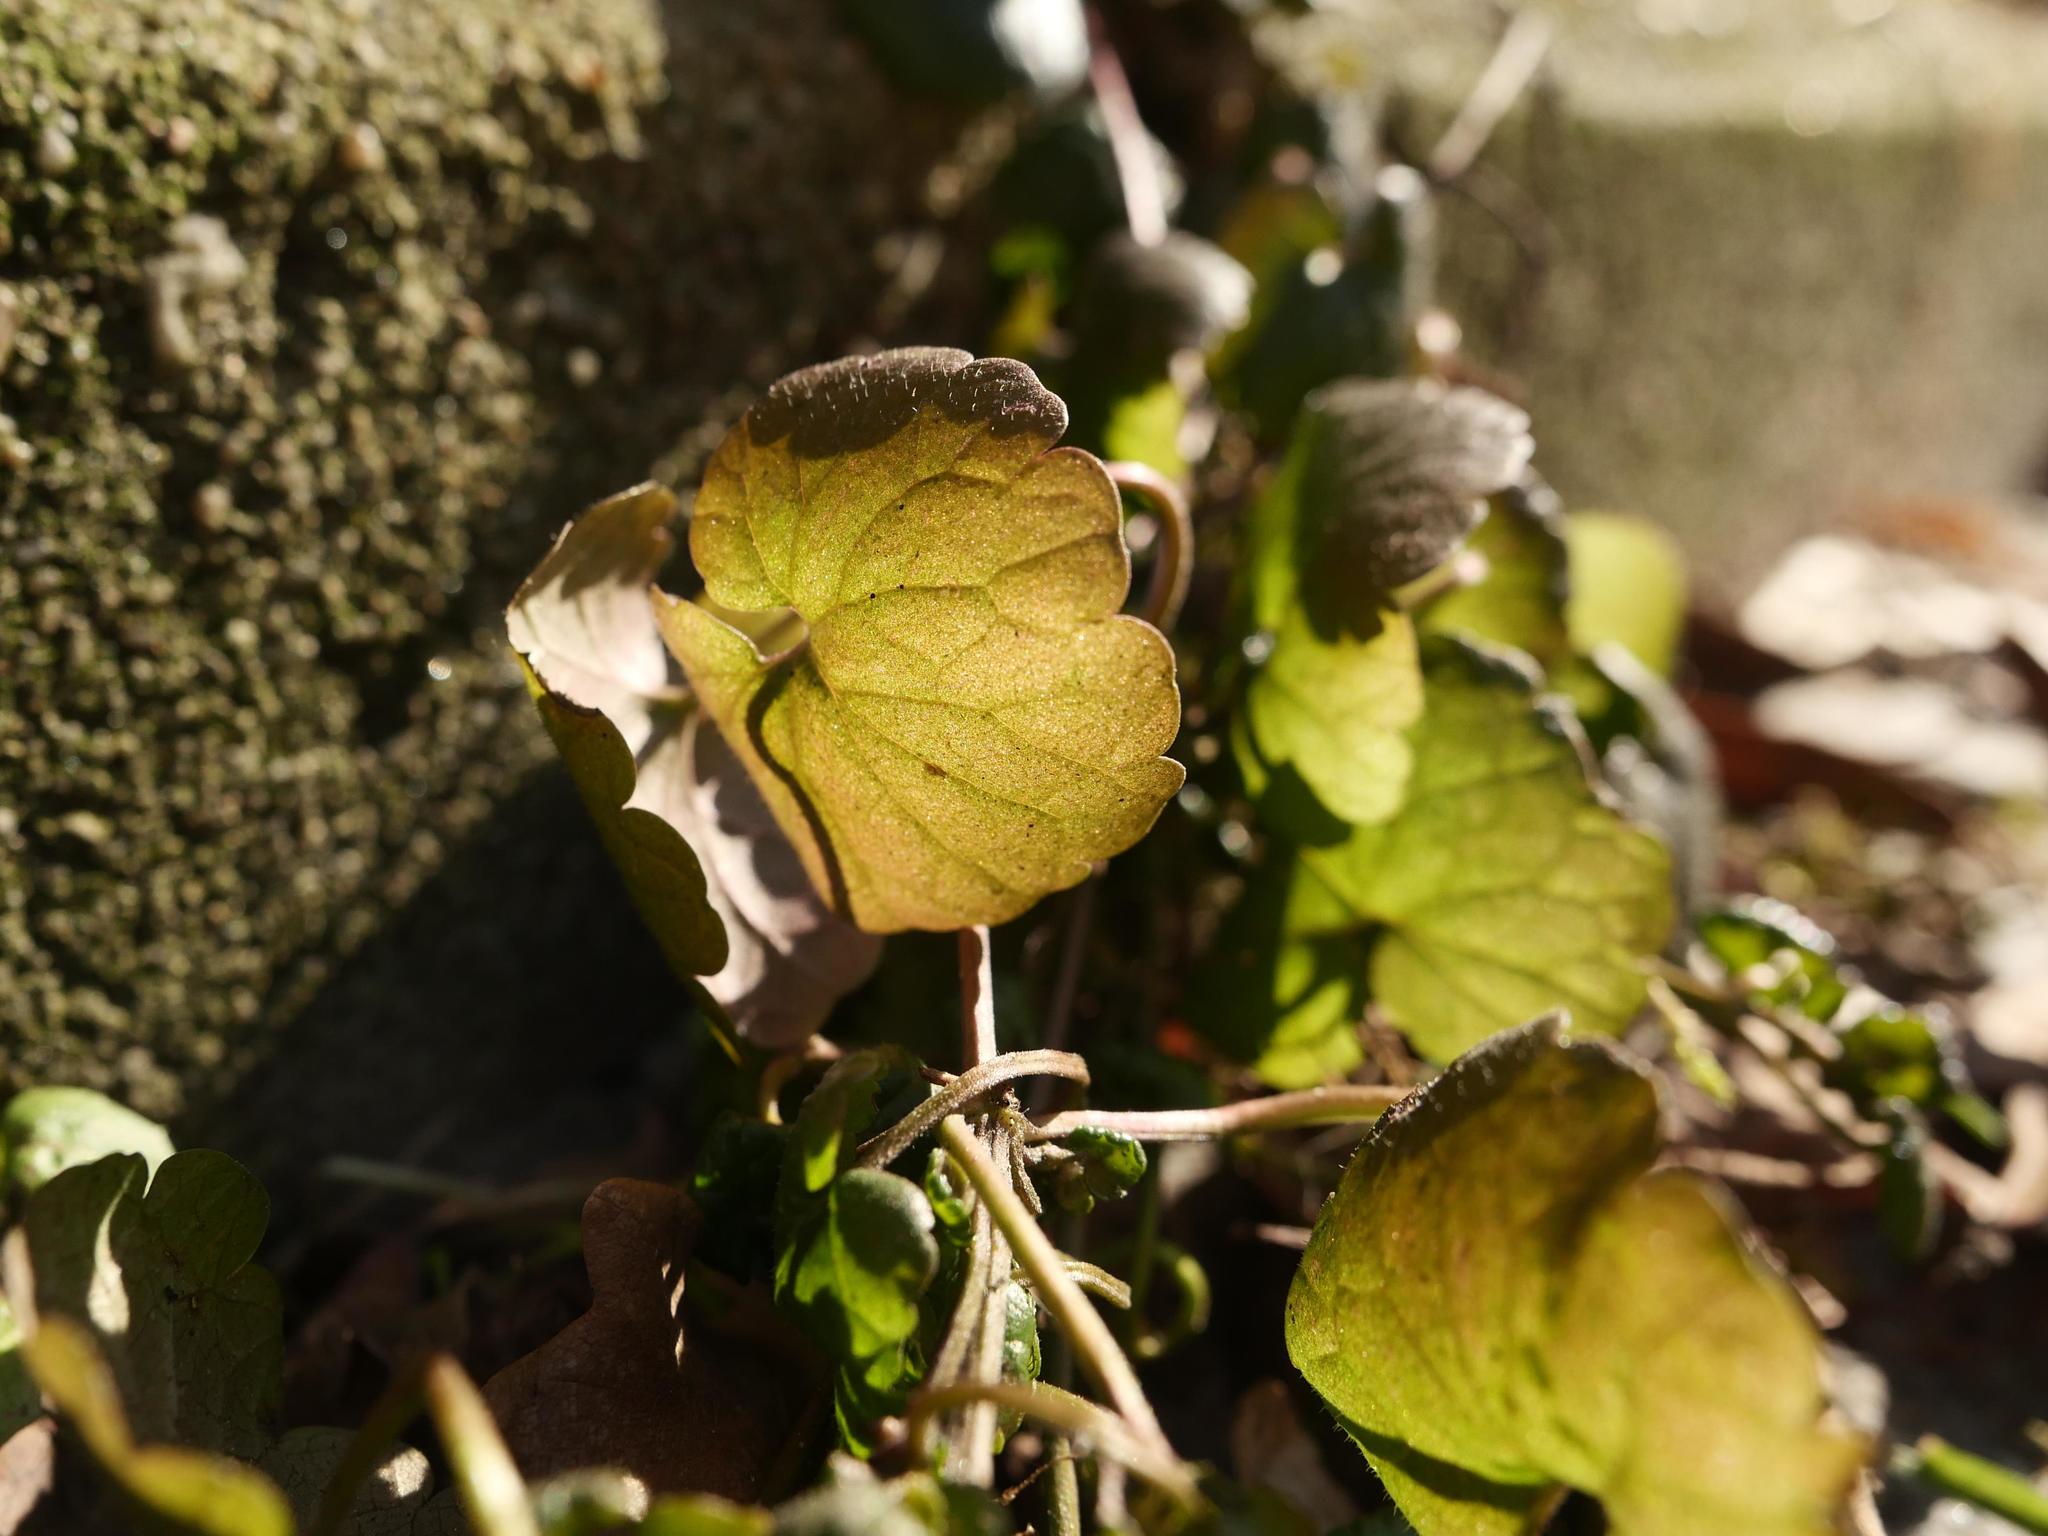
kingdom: Plantae
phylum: Tracheophyta
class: Magnoliopsida
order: Lamiales
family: Lamiaceae
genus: Glechoma
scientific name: Glechoma hederacea
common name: Ground ivy
